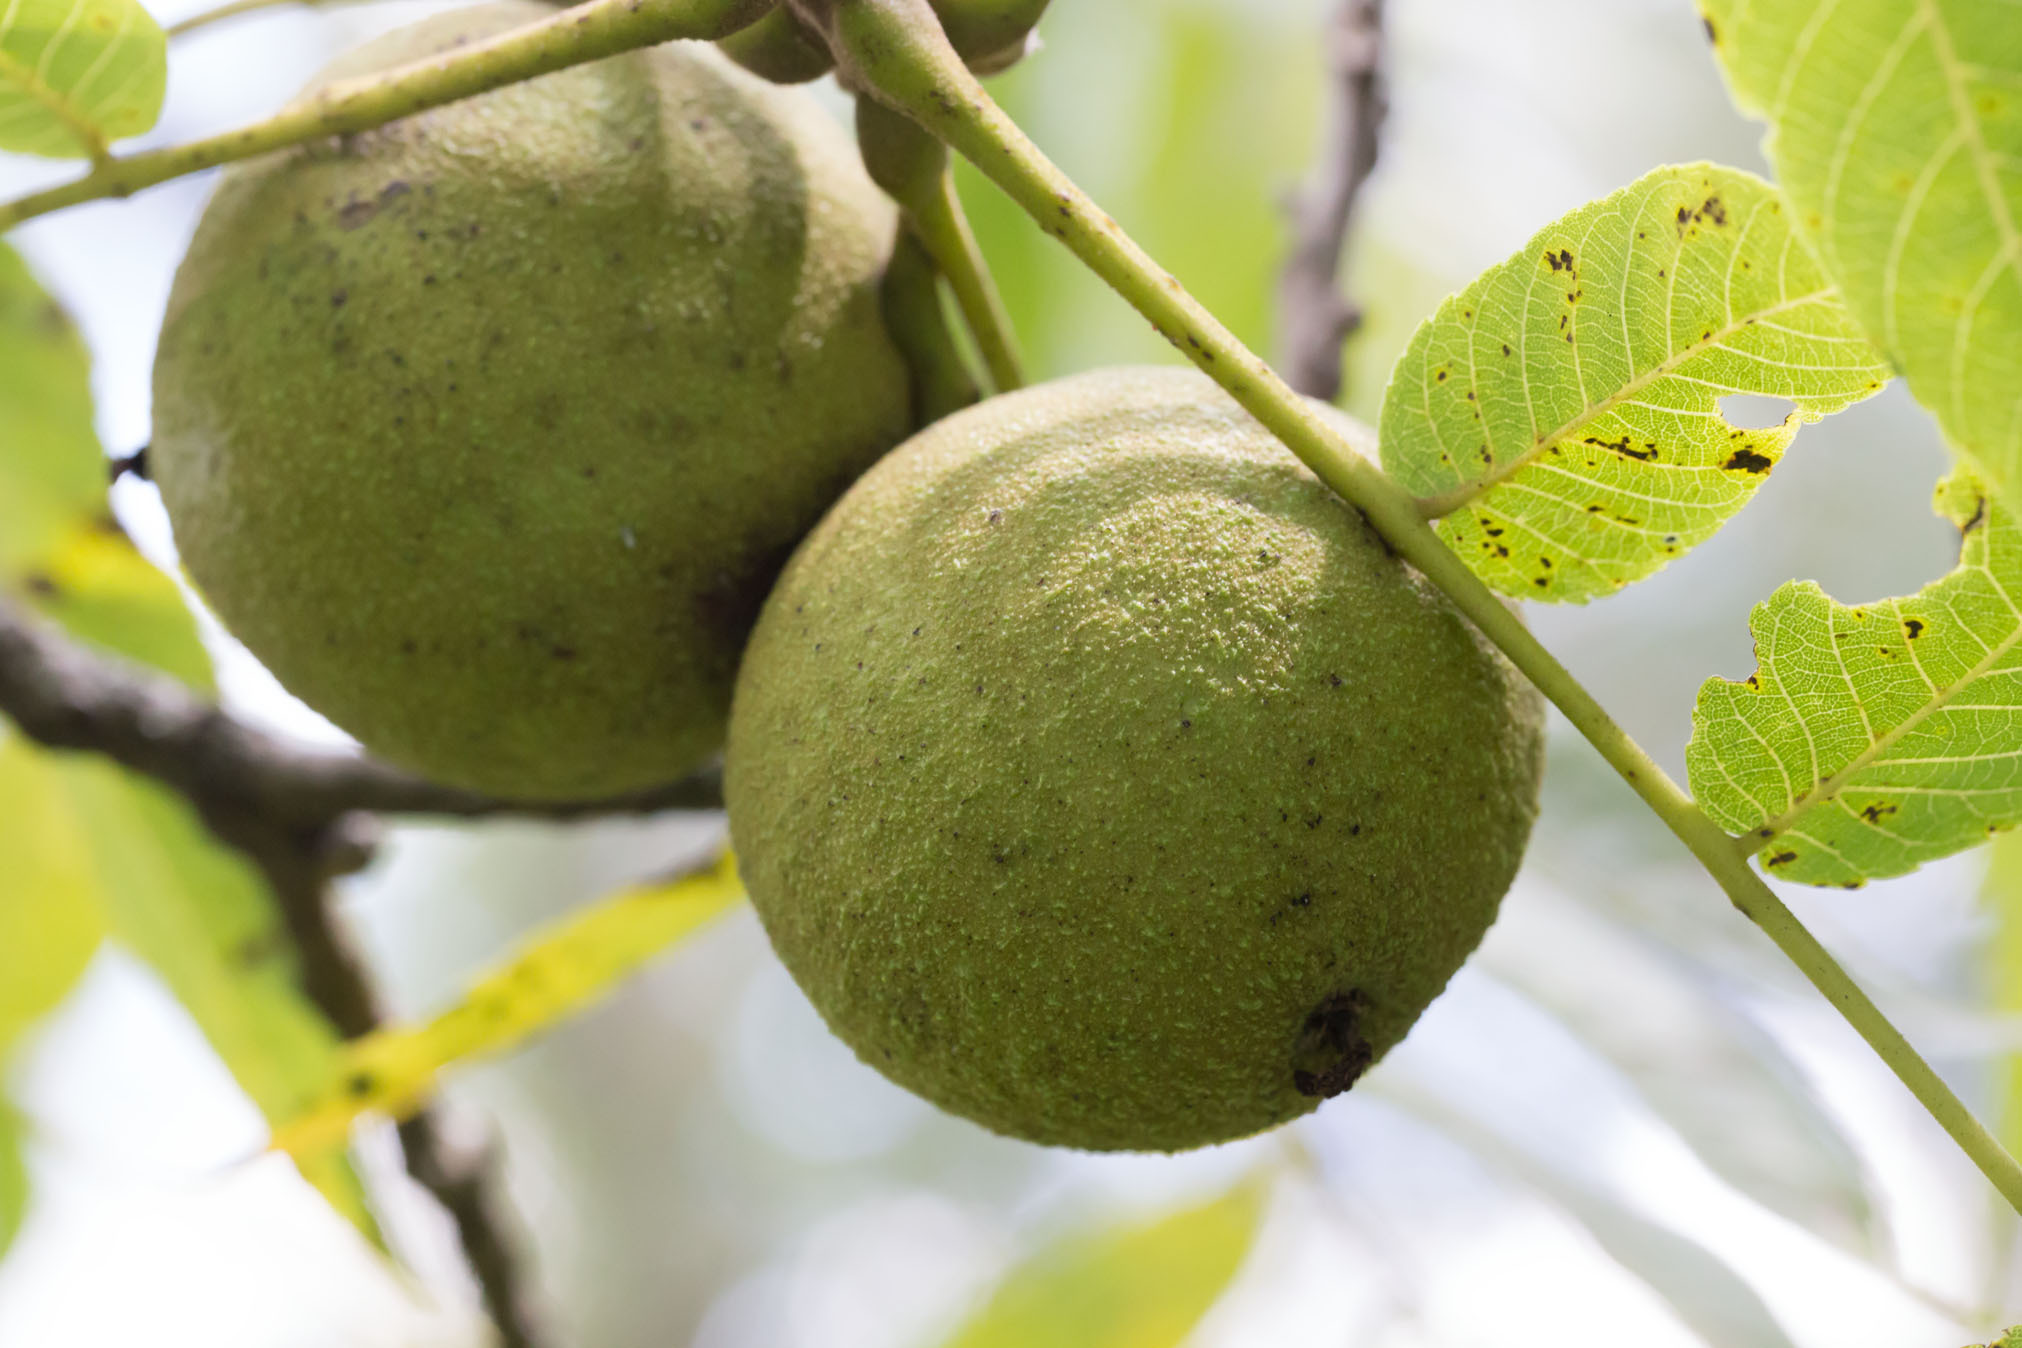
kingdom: Plantae
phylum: Tracheophyta
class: Magnoliopsida
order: Fagales
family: Juglandaceae
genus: Juglans
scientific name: Juglans nigra
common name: Black walnut
